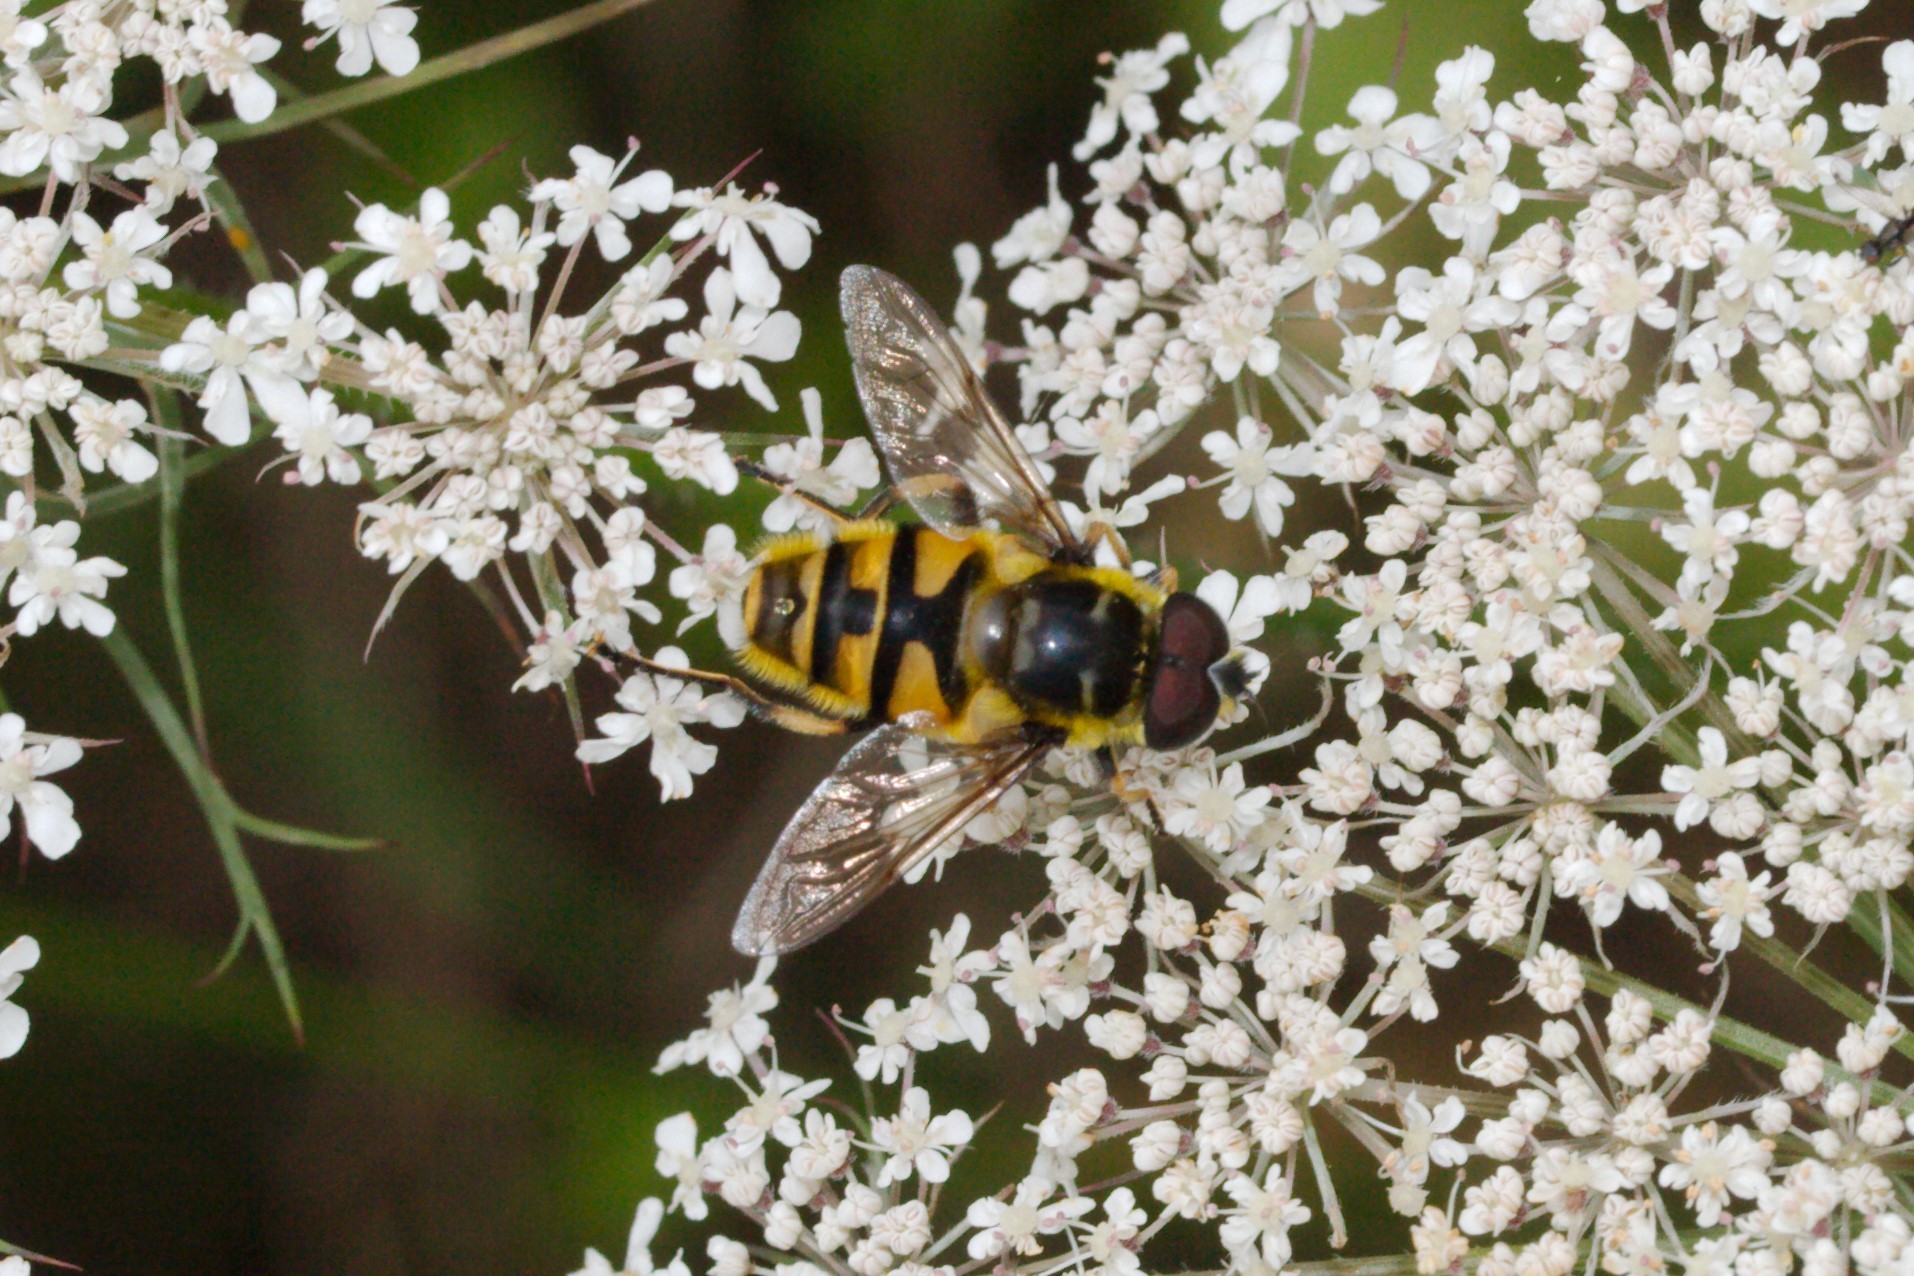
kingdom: Animalia
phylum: Arthropoda
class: Insecta
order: Diptera
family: Syrphidae
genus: Myathropa
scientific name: Myathropa florea
